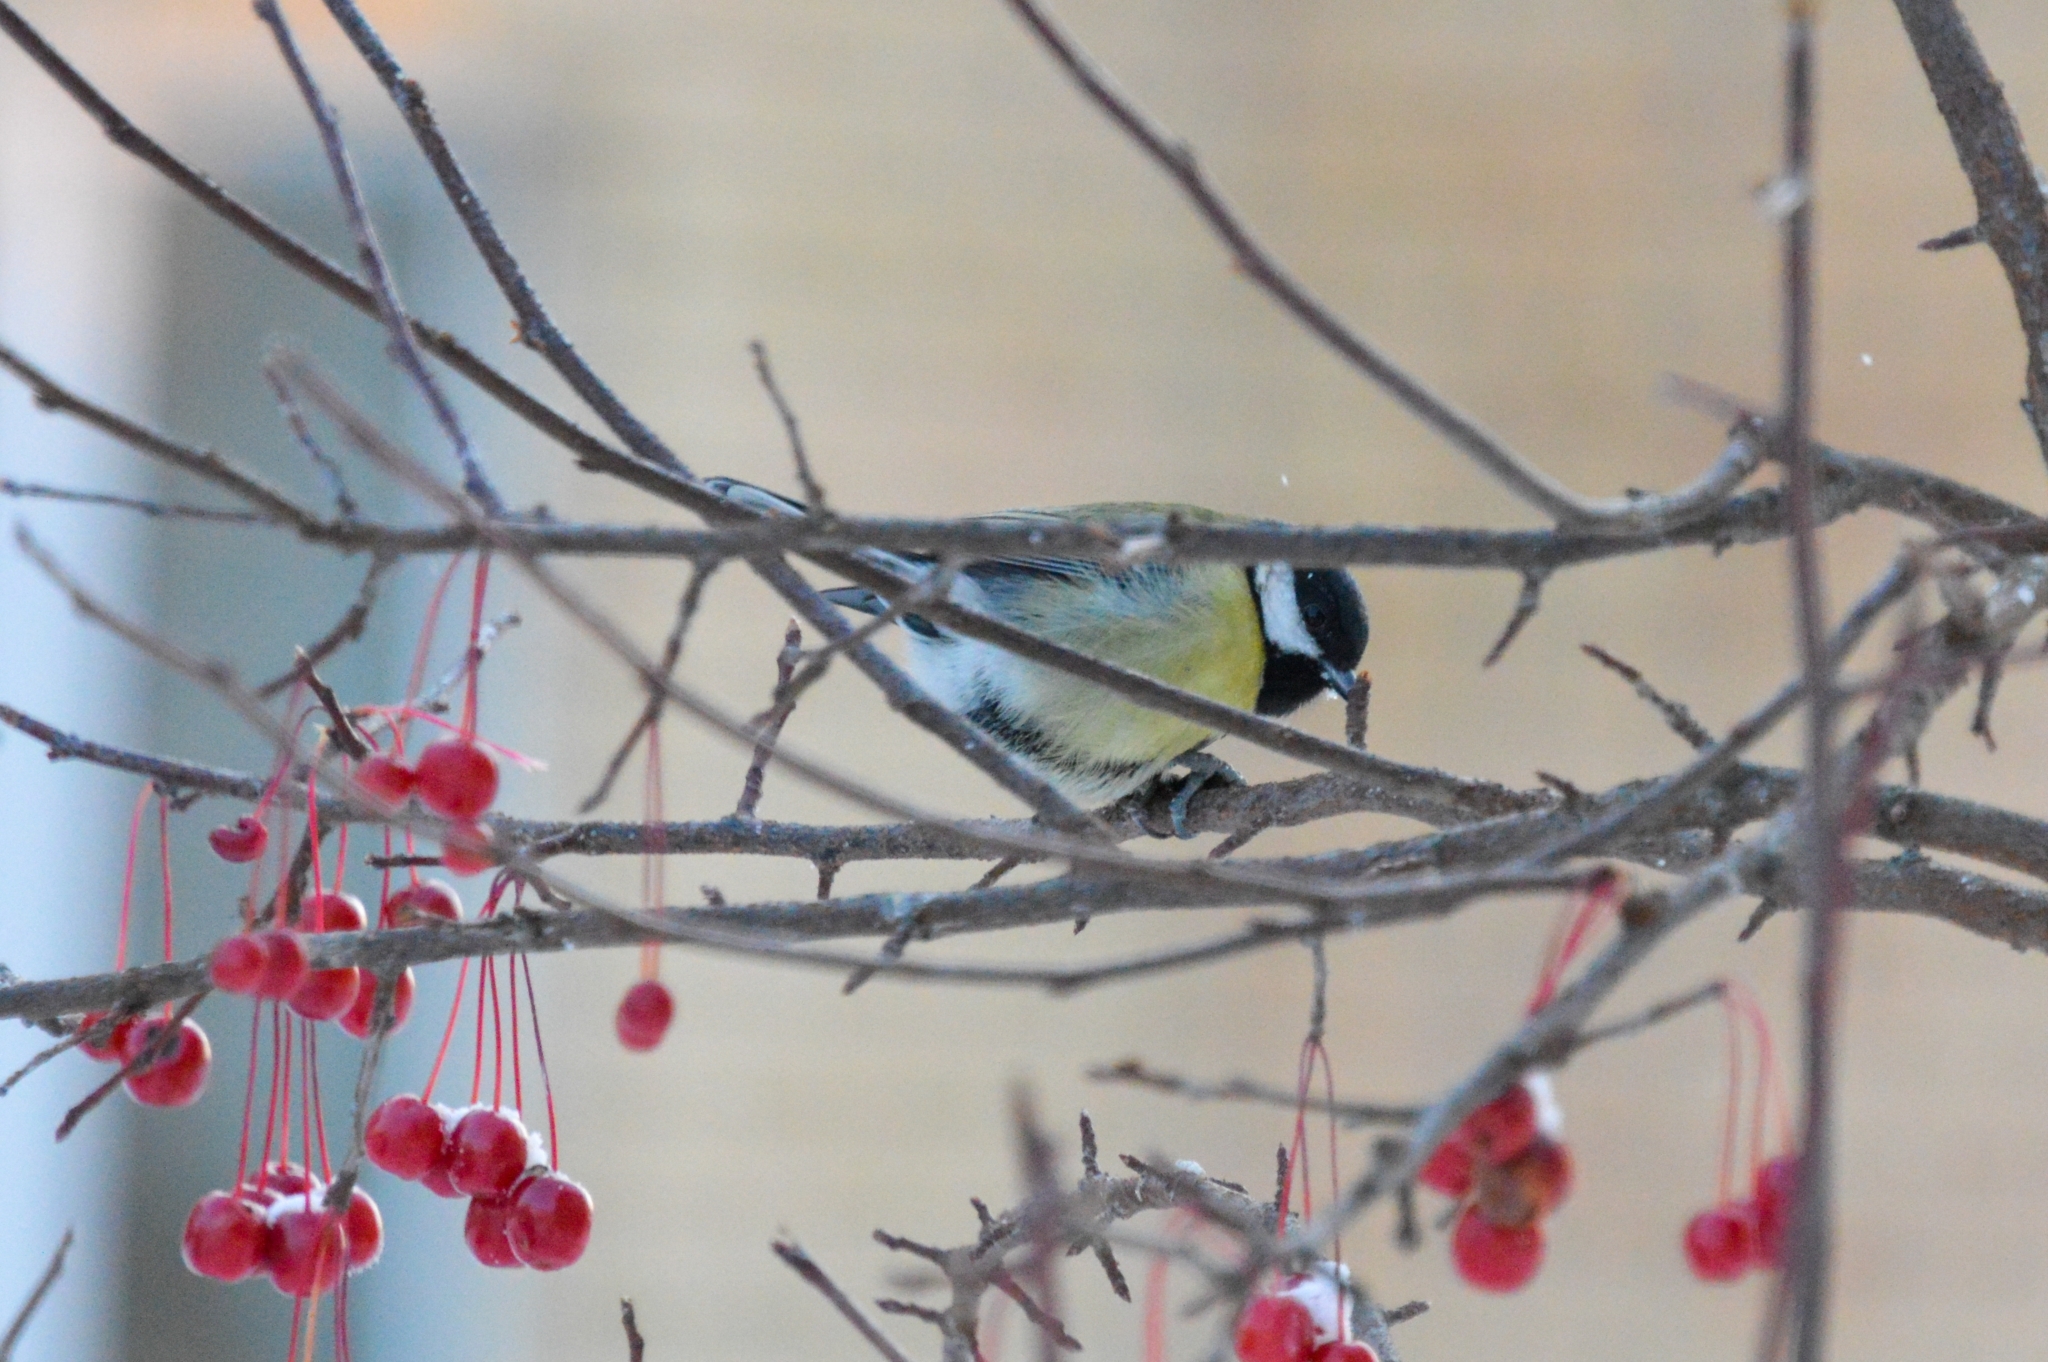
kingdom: Animalia
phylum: Chordata
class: Aves
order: Passeriformes
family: Paridae
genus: Parus
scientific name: Parus major
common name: Great tit
